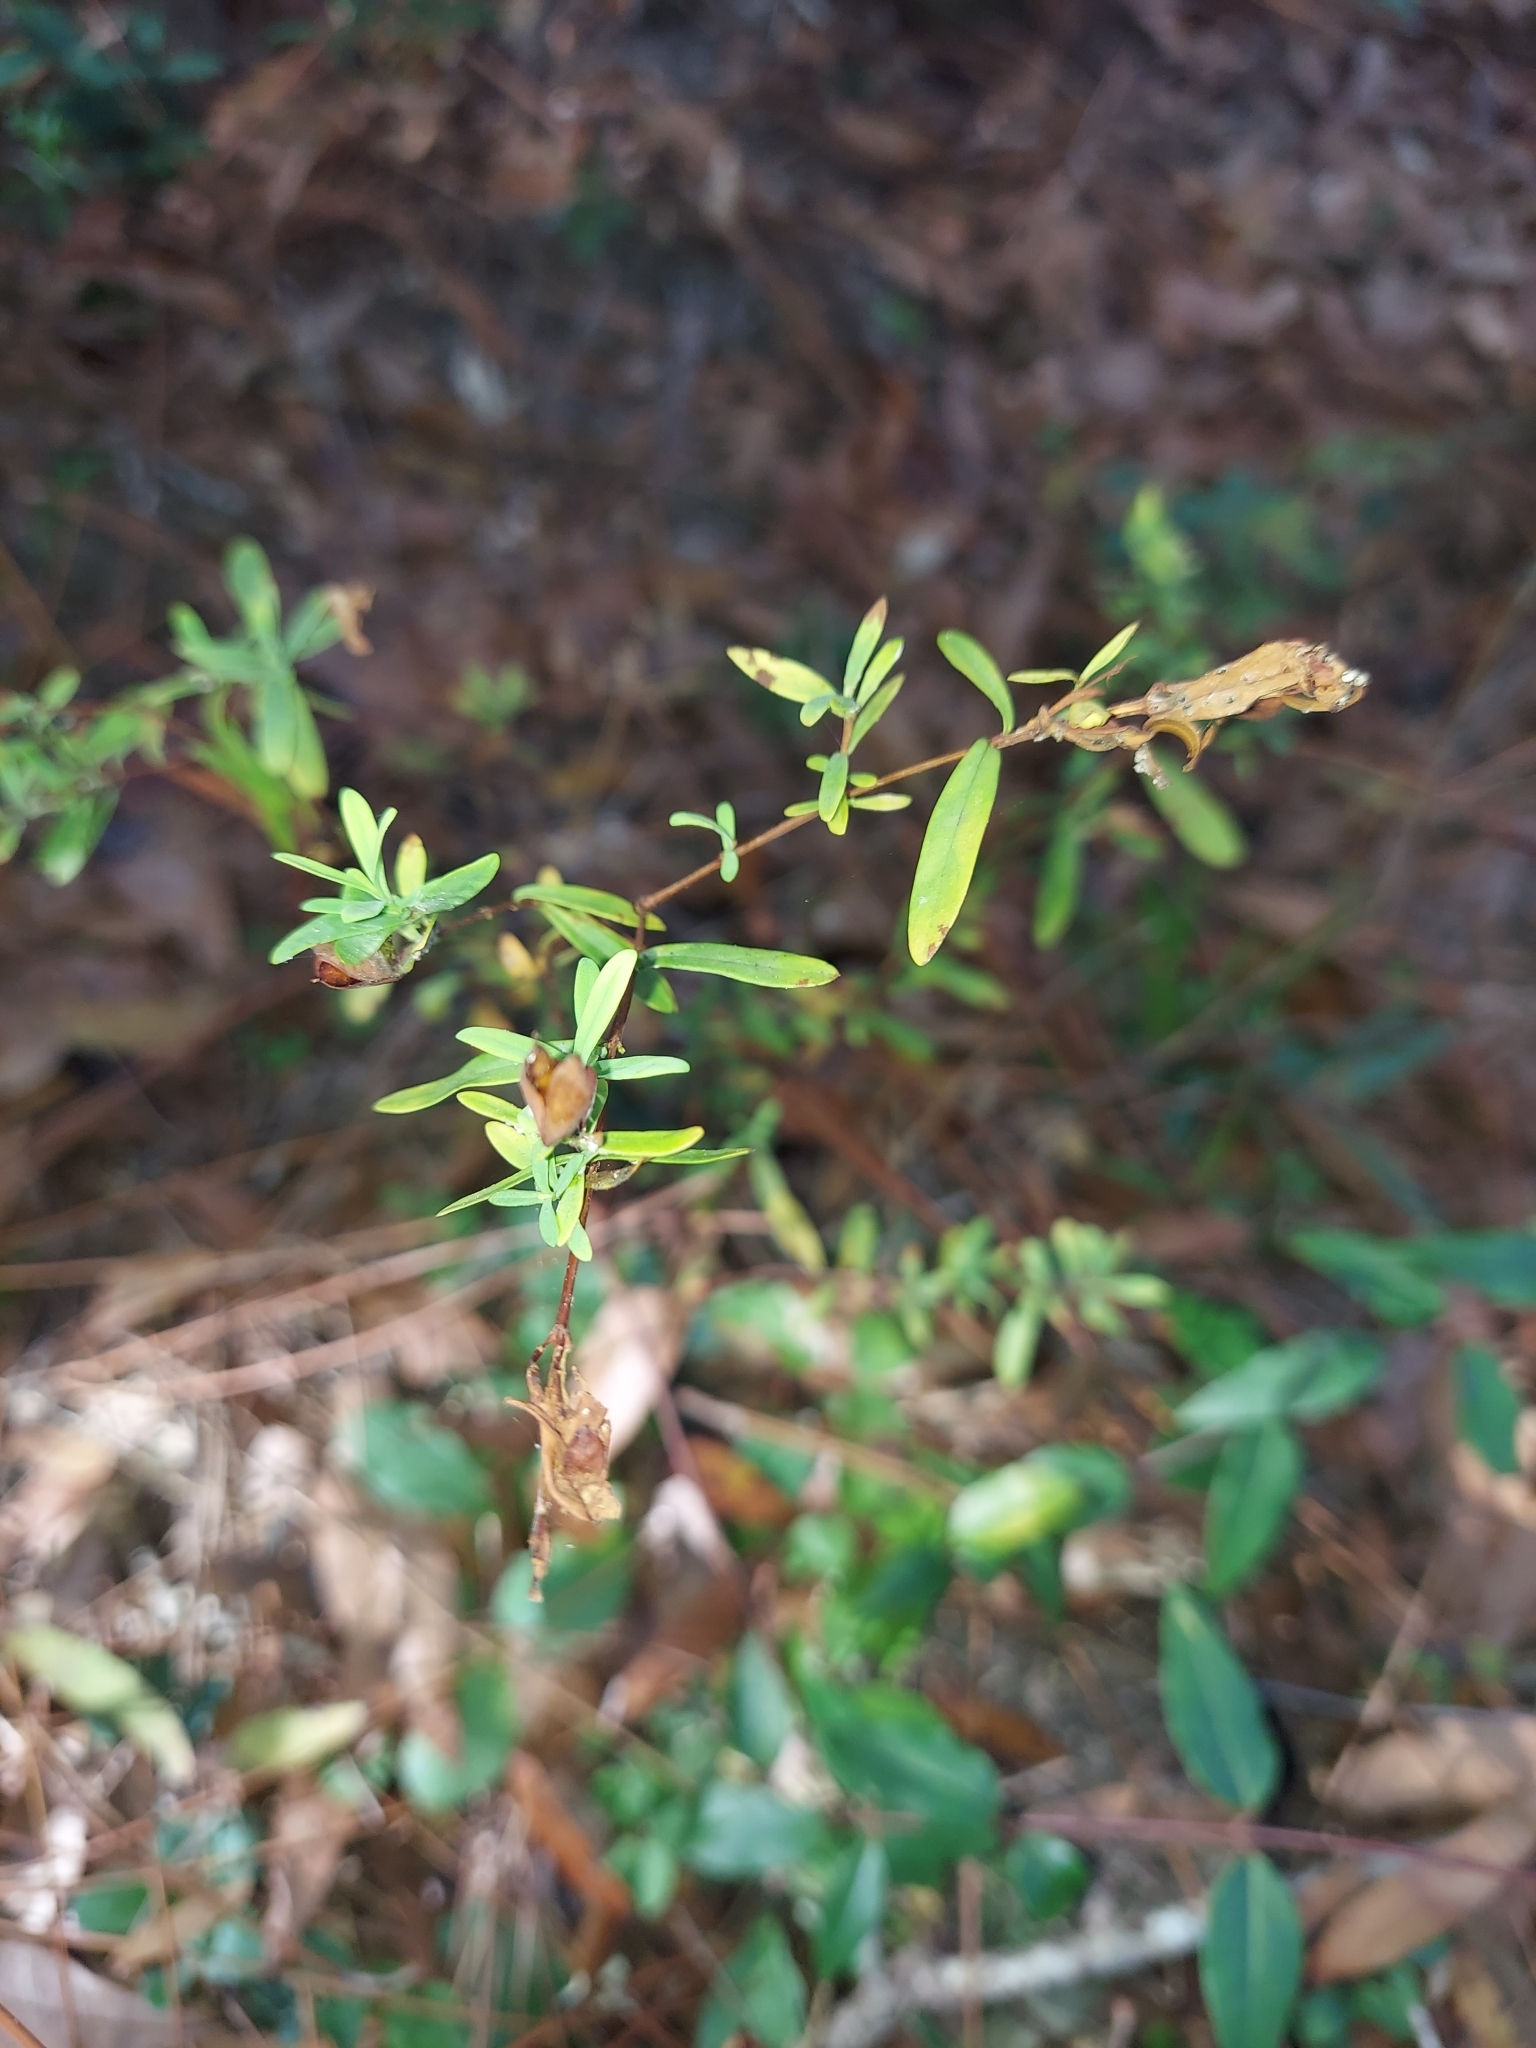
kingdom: Plantae
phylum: Tracheophyta
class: Magnoliopsida
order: Malpighiales
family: Hypericaceae
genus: Hypericum
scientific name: Hypericum hypericoides
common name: St. andrew's cross
